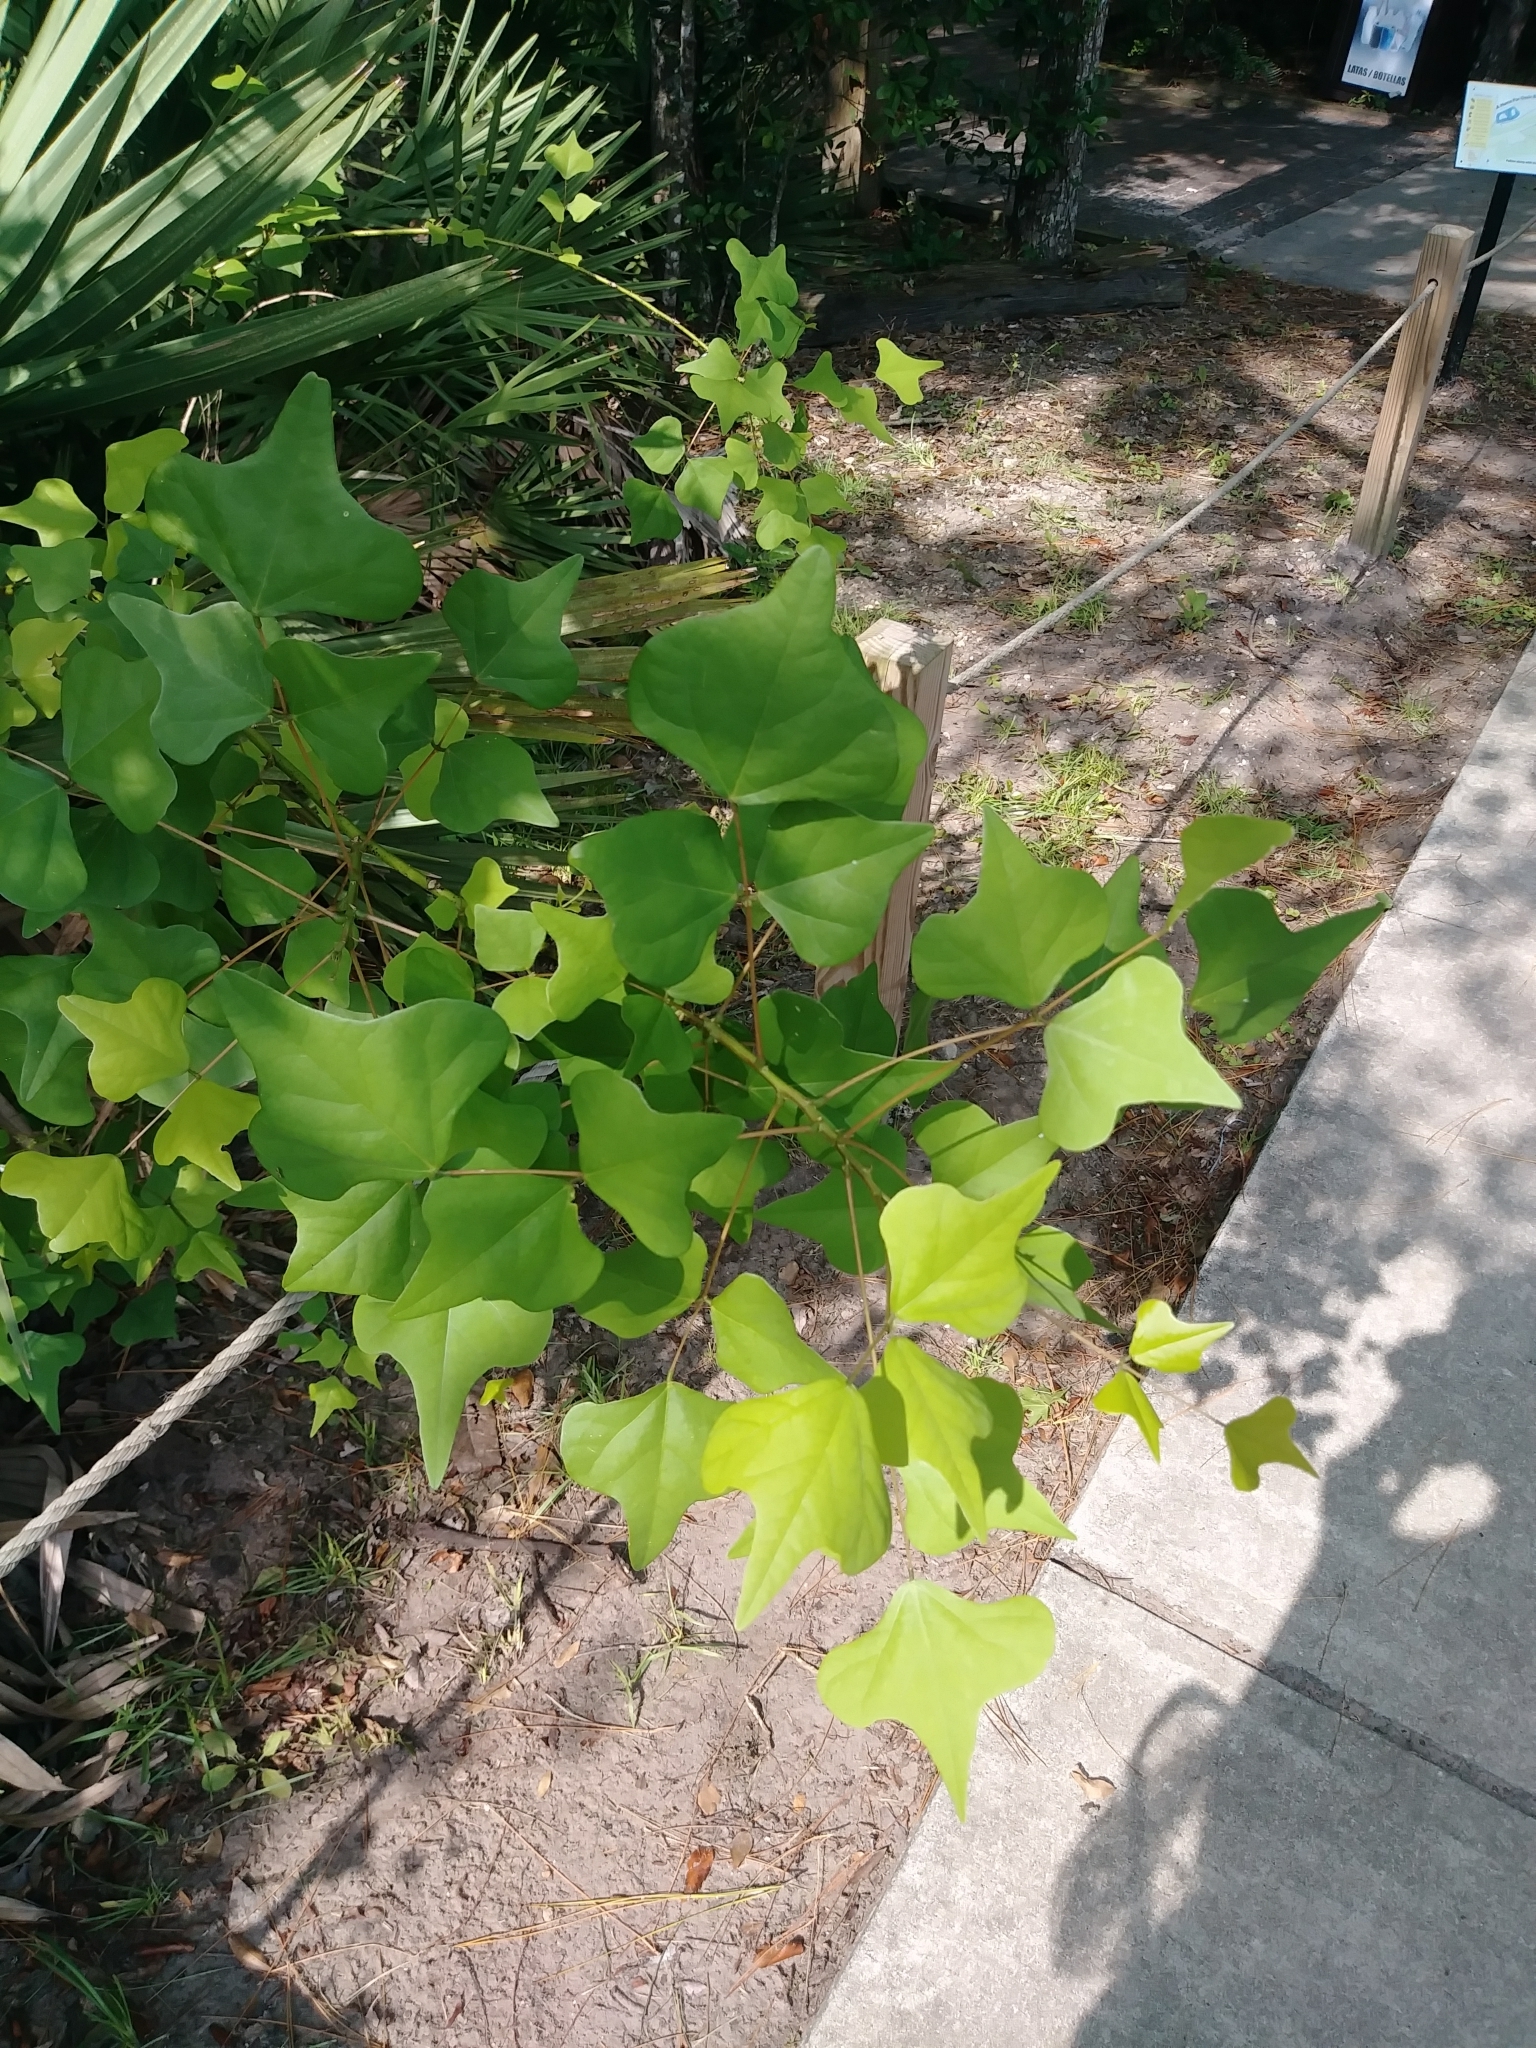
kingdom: Plantae
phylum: Tracheophyta
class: Magnoliopsida
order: Fabales
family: Fabaceae
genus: Erythrina
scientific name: Erythrina herbacea
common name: Coral-bean
